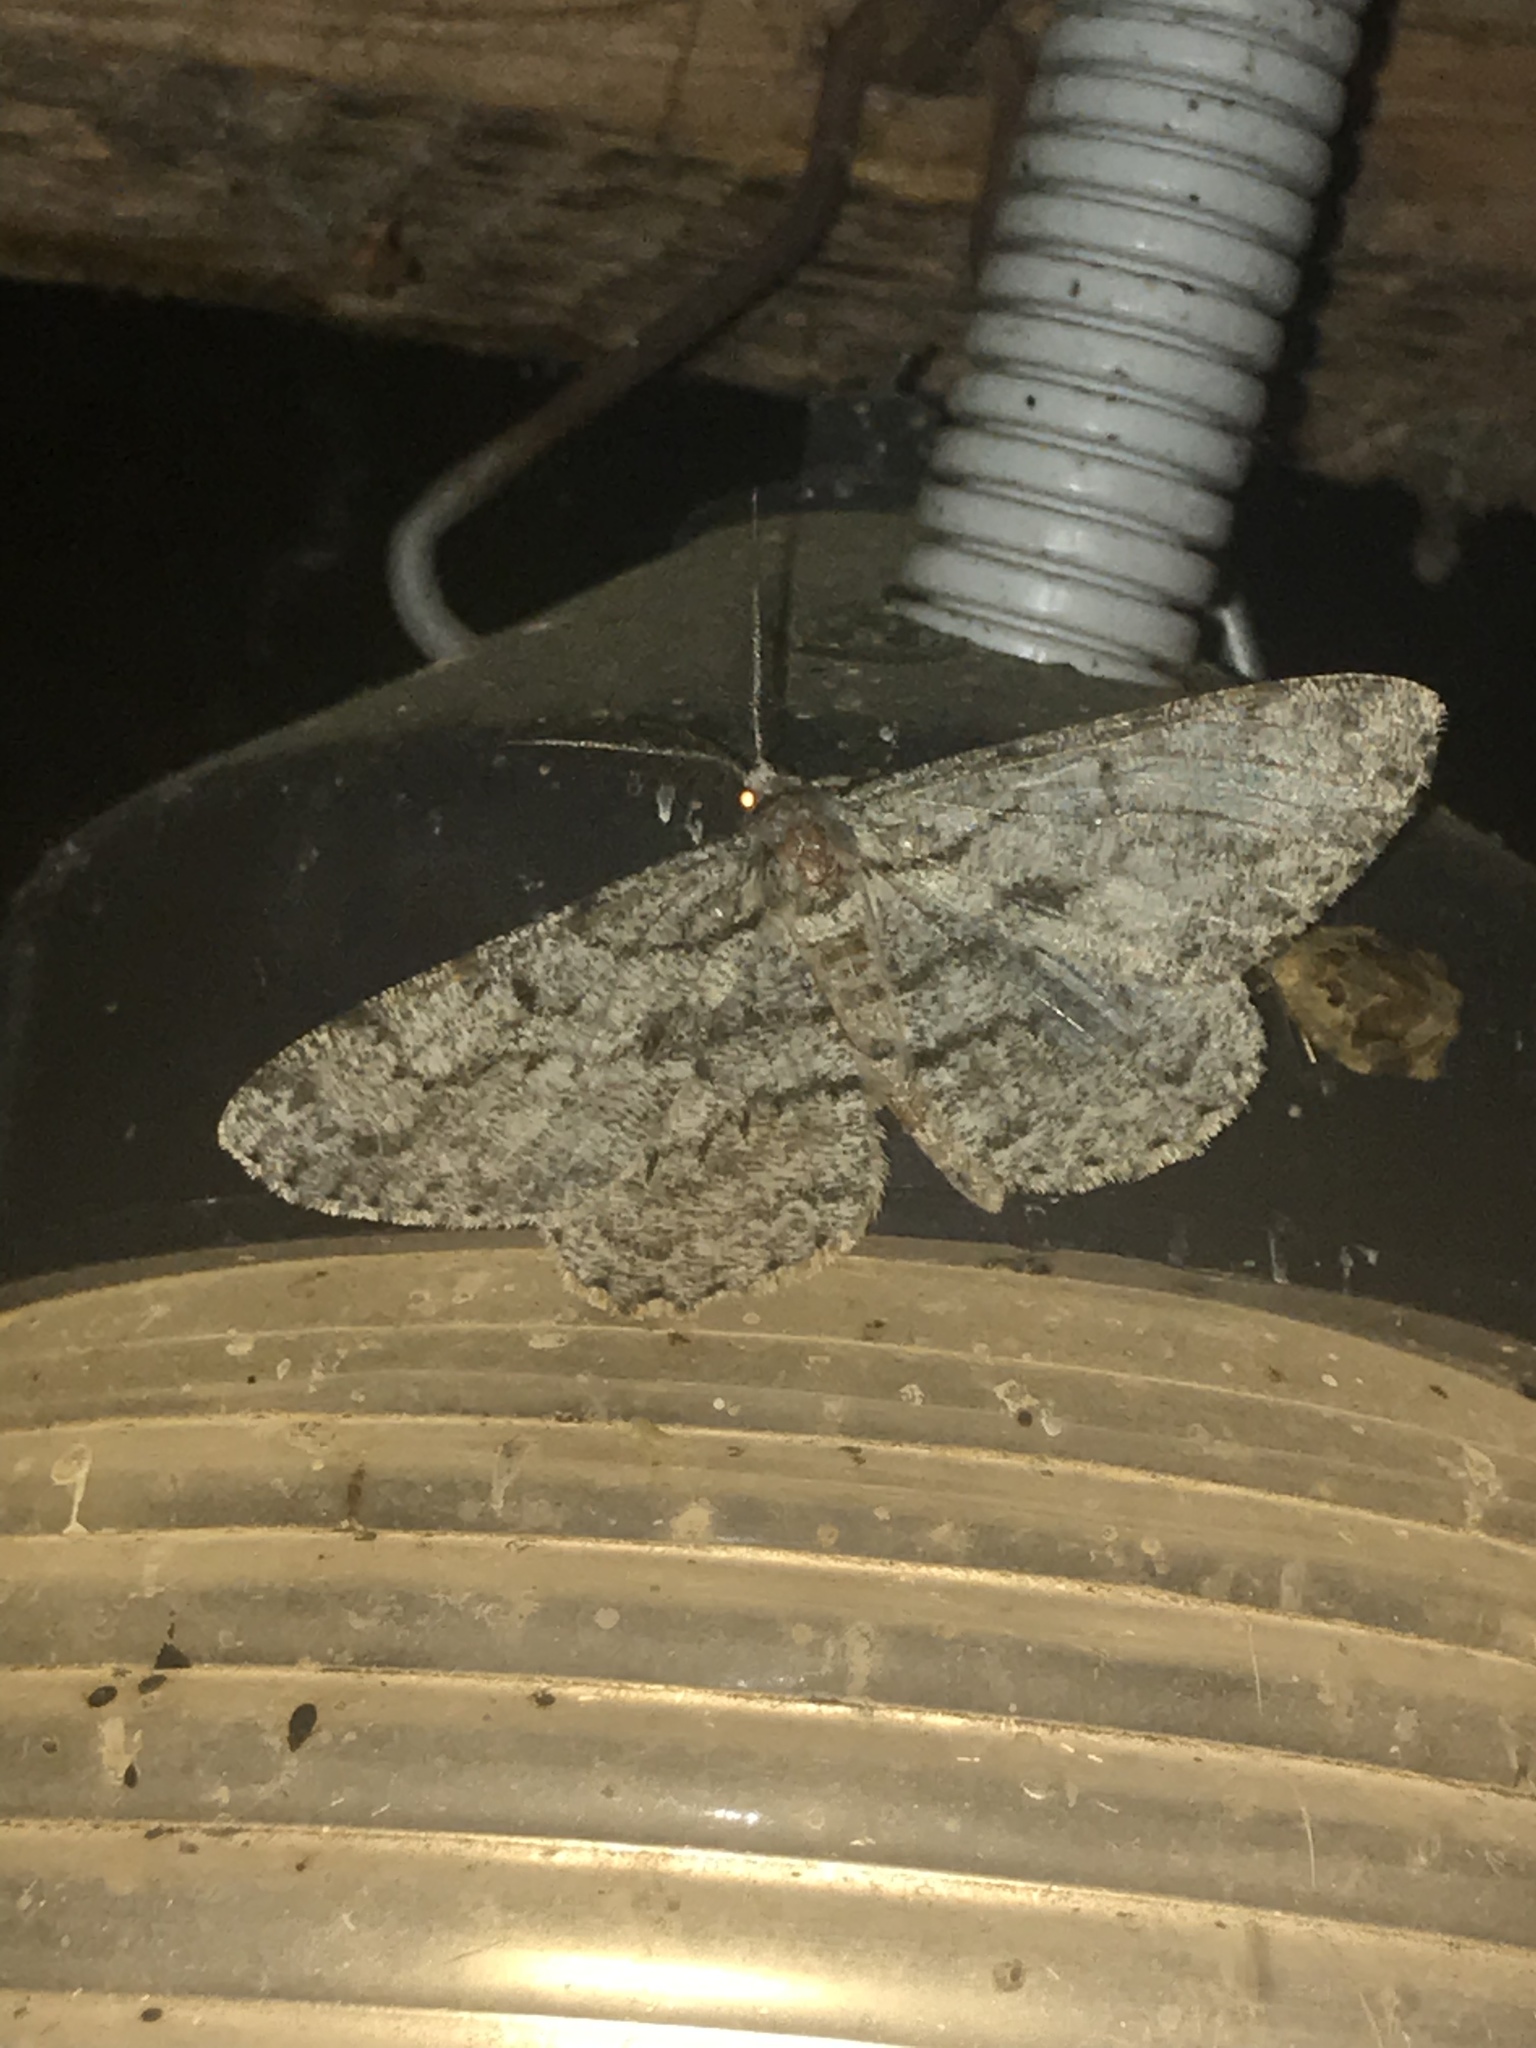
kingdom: Animalia
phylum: Arthropoda
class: Insecta
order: Lepidoptera
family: Geometridae
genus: Hypomecis
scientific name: Hypomecis roboraria
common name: Great oak beauty
